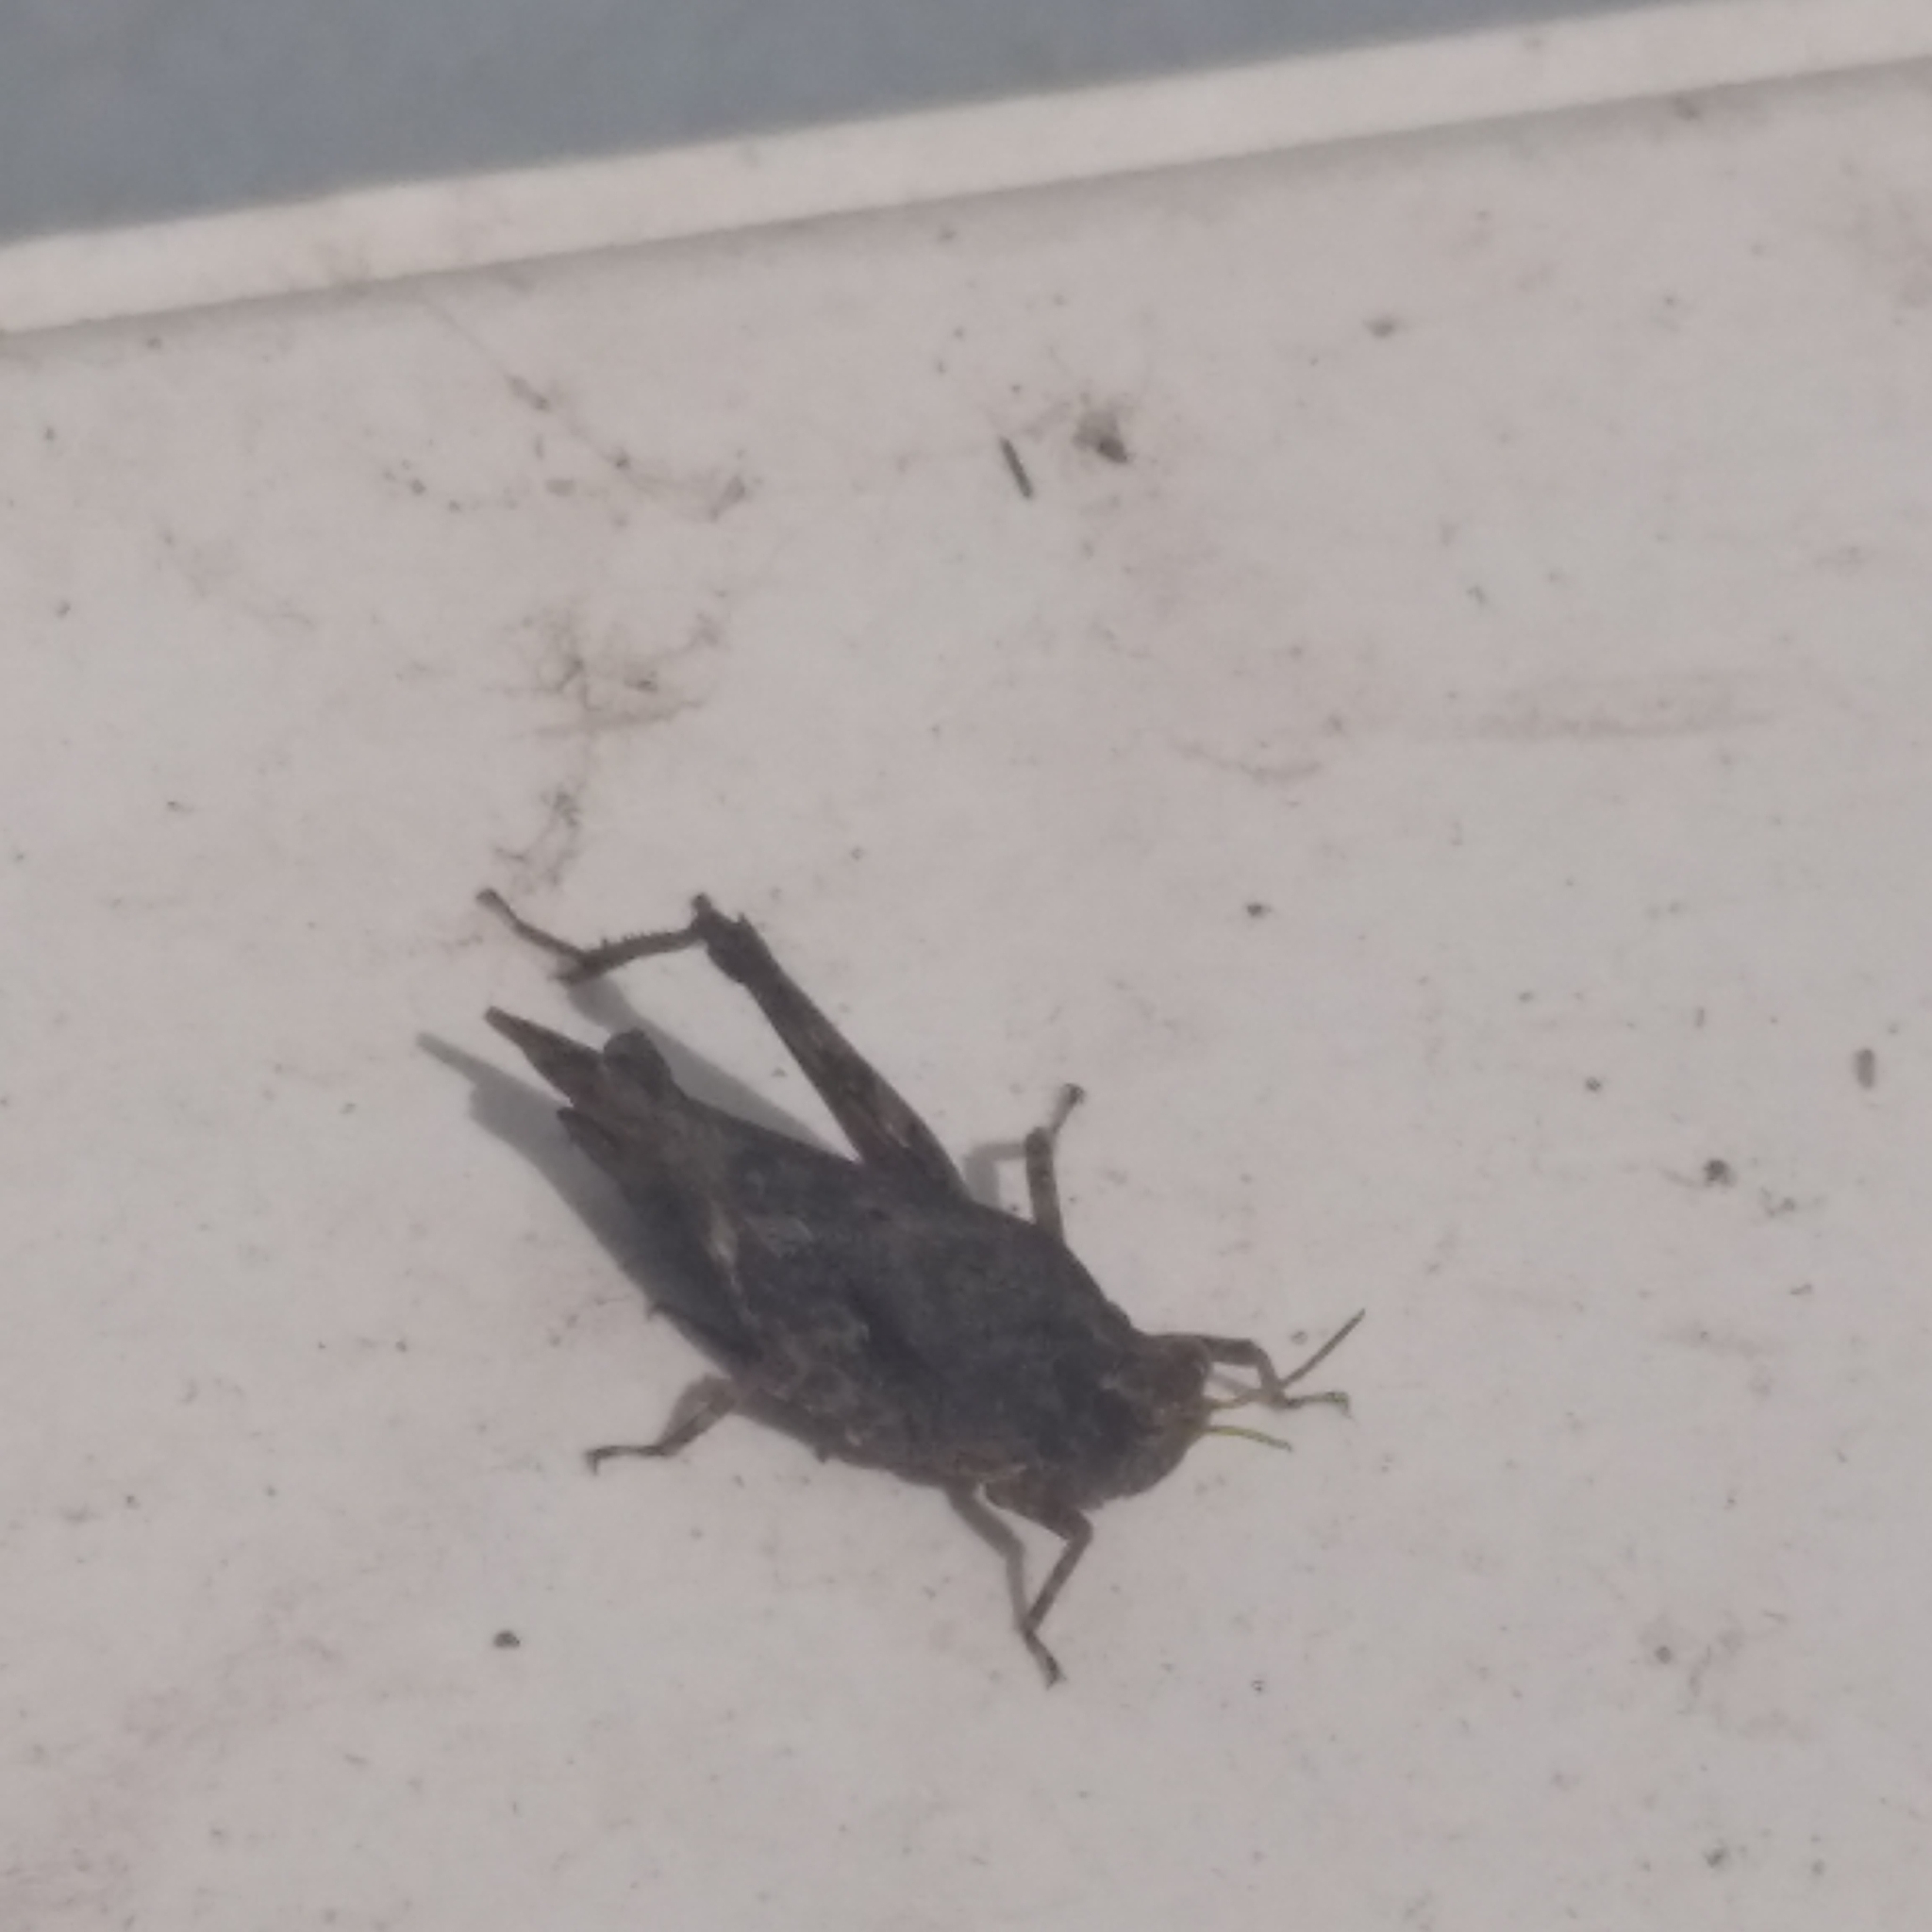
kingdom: Animalia
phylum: Arthropoda
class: Insecta
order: Orthoptera
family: Tetrigidae
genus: Tetrix
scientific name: Tetrix subulata
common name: Slender ground-hopper
